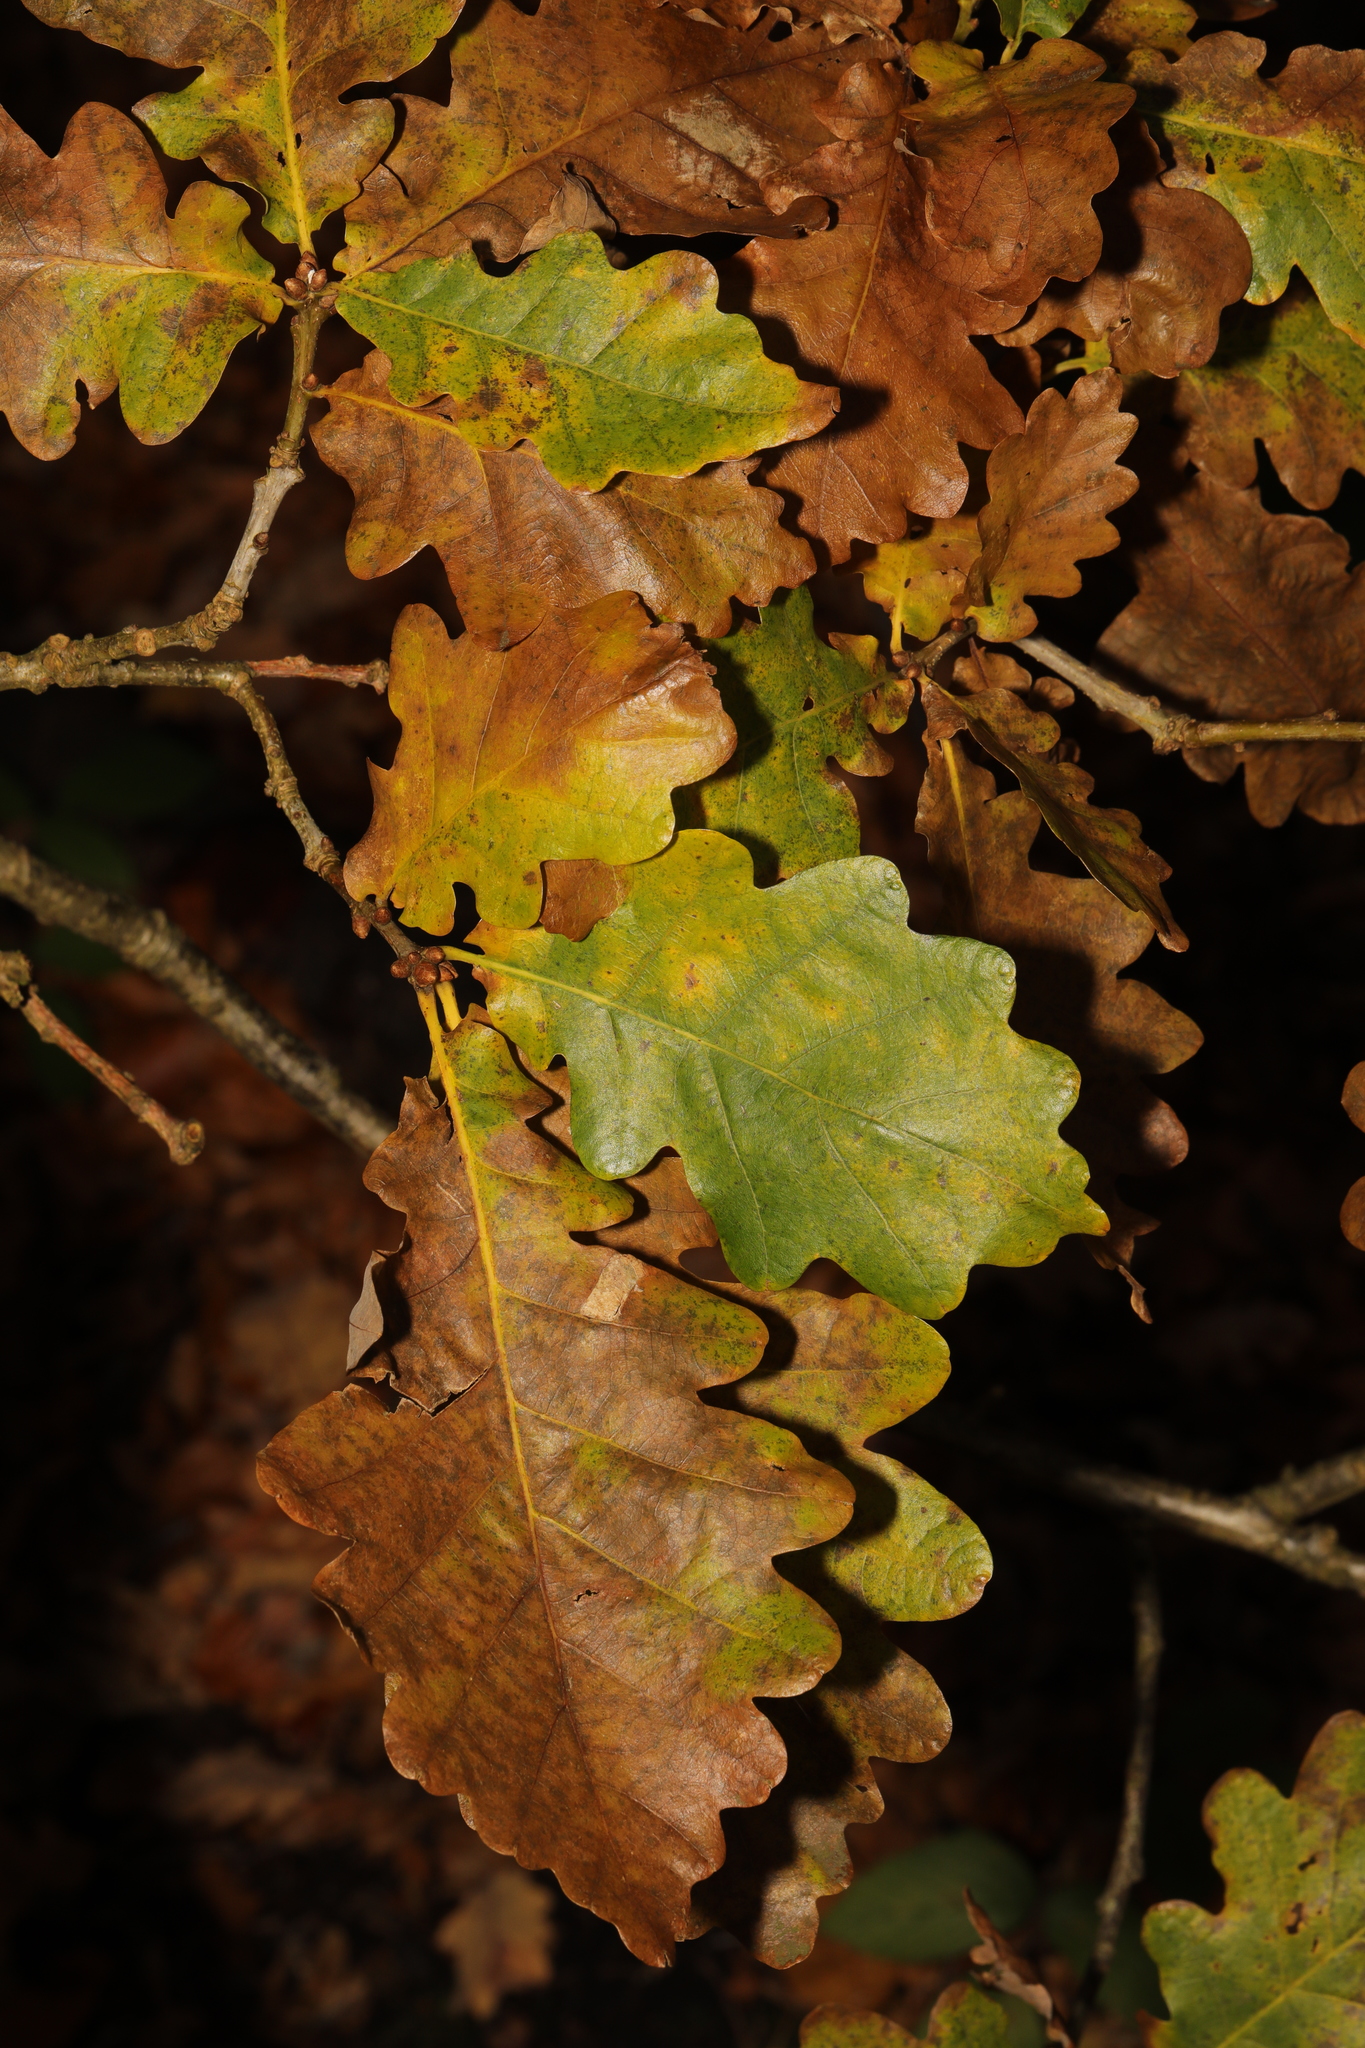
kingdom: Plantae
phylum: Tracheophyta
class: Magnoliopsida
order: Fagales
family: Fagaceae
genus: Quercus
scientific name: Quercus robur
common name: Pedunculate oak
